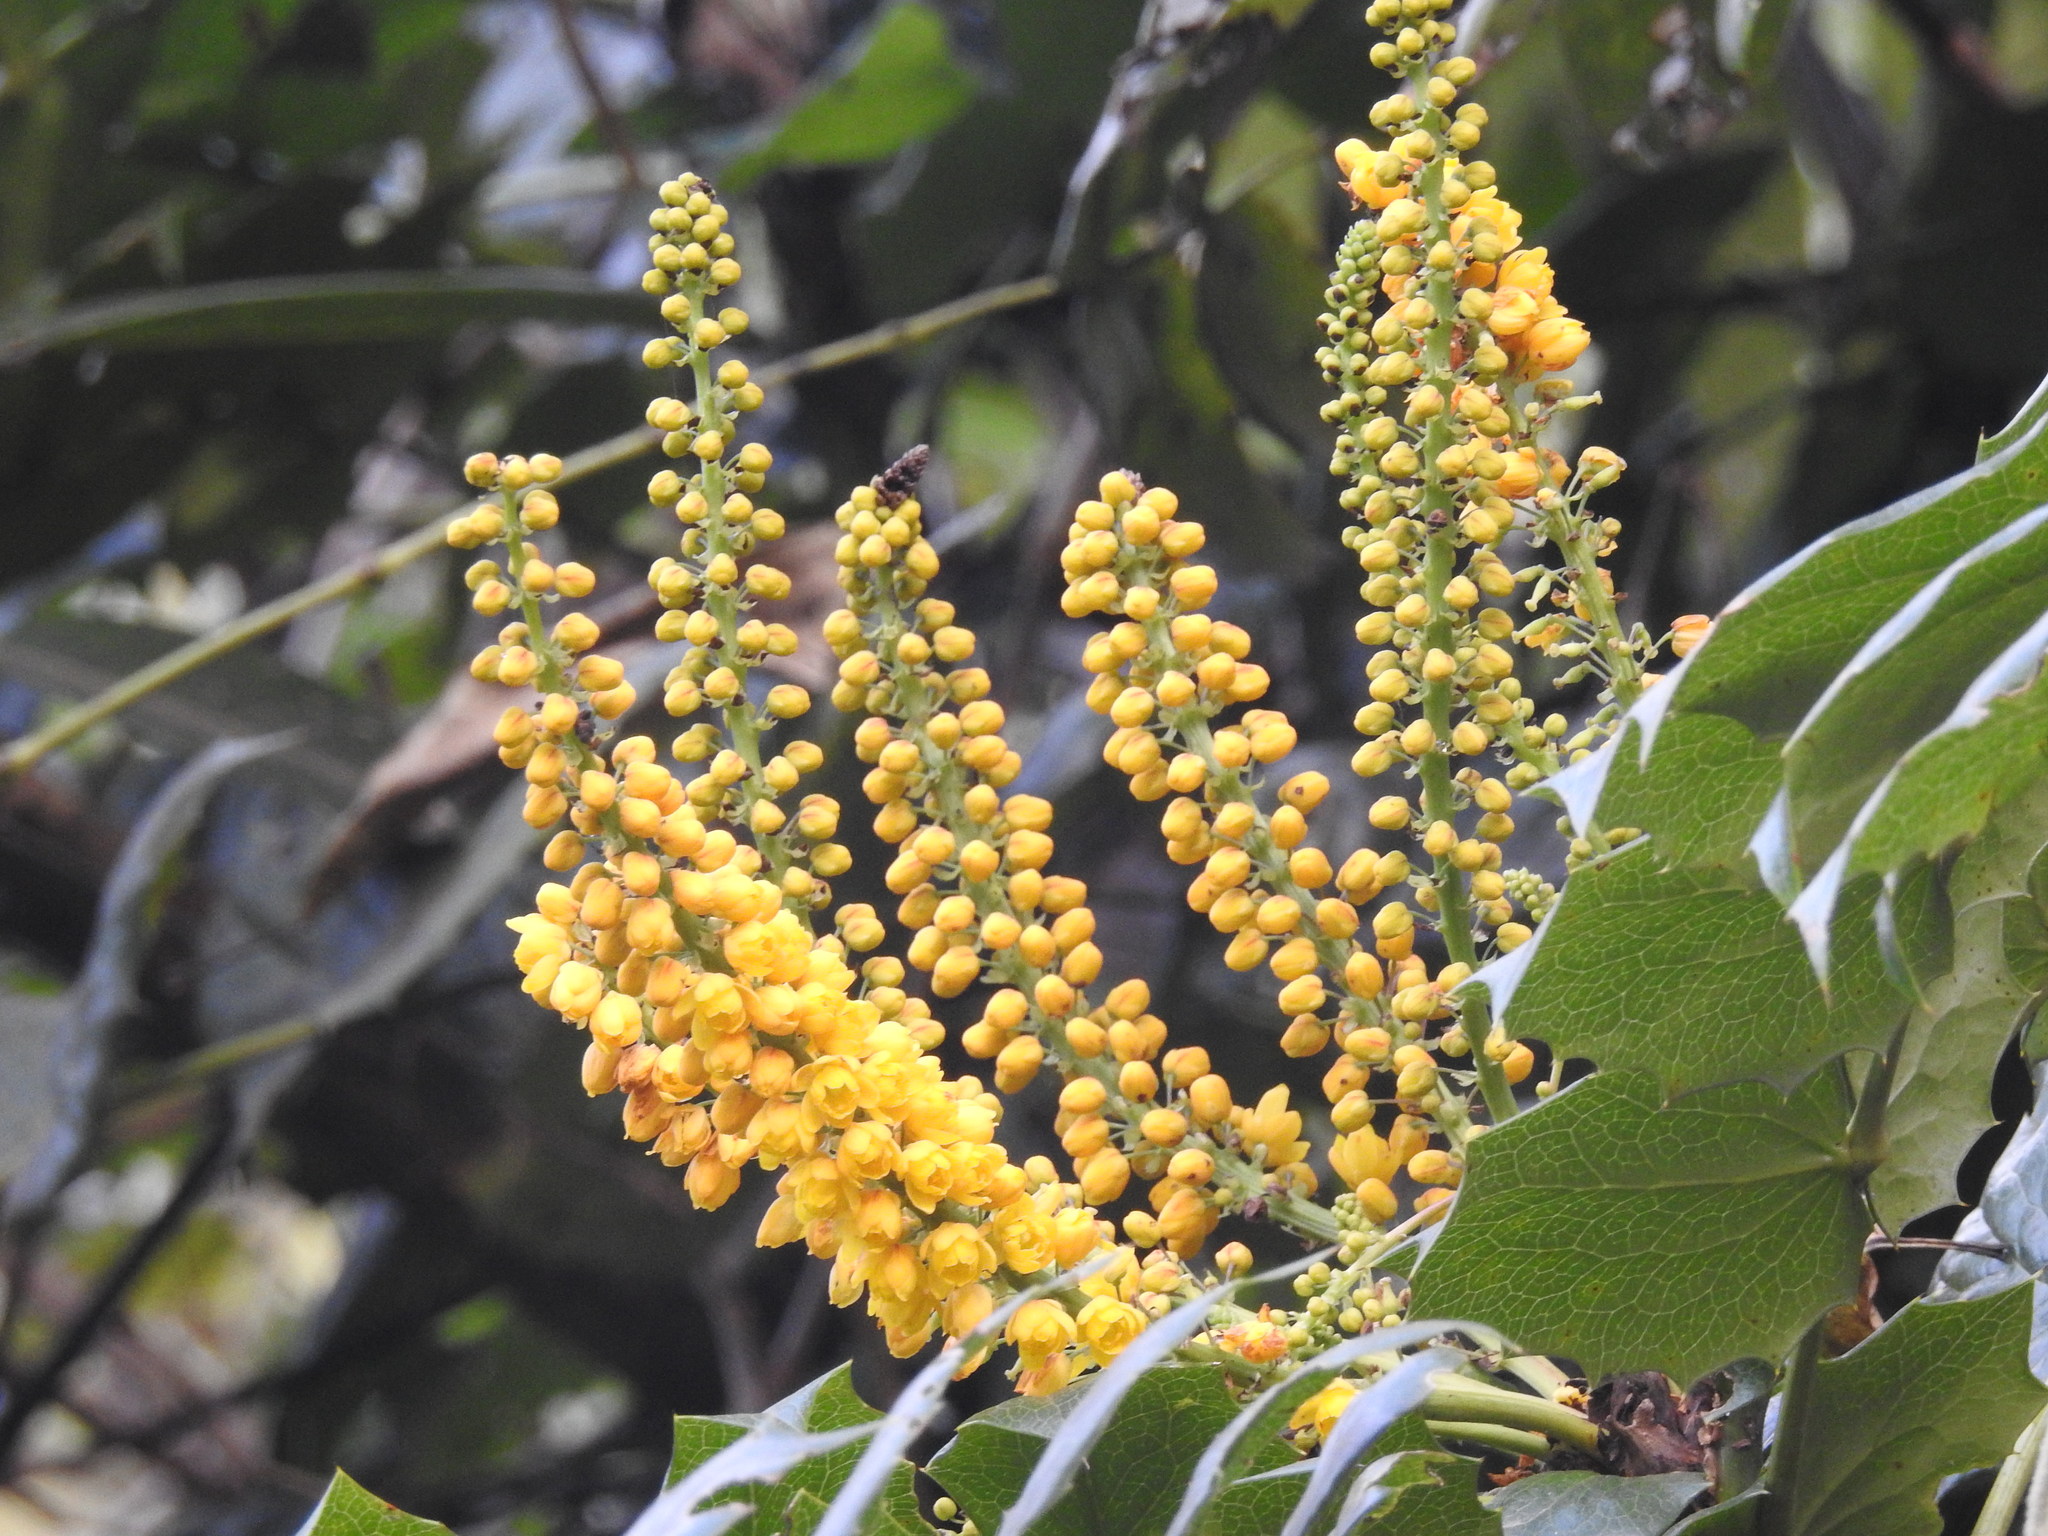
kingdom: Plantae
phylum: Tracheophyta
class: Magnoliopsida
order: Ranunculales
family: Berberidaceae
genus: Mahonia
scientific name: Mahonia napaulensis
